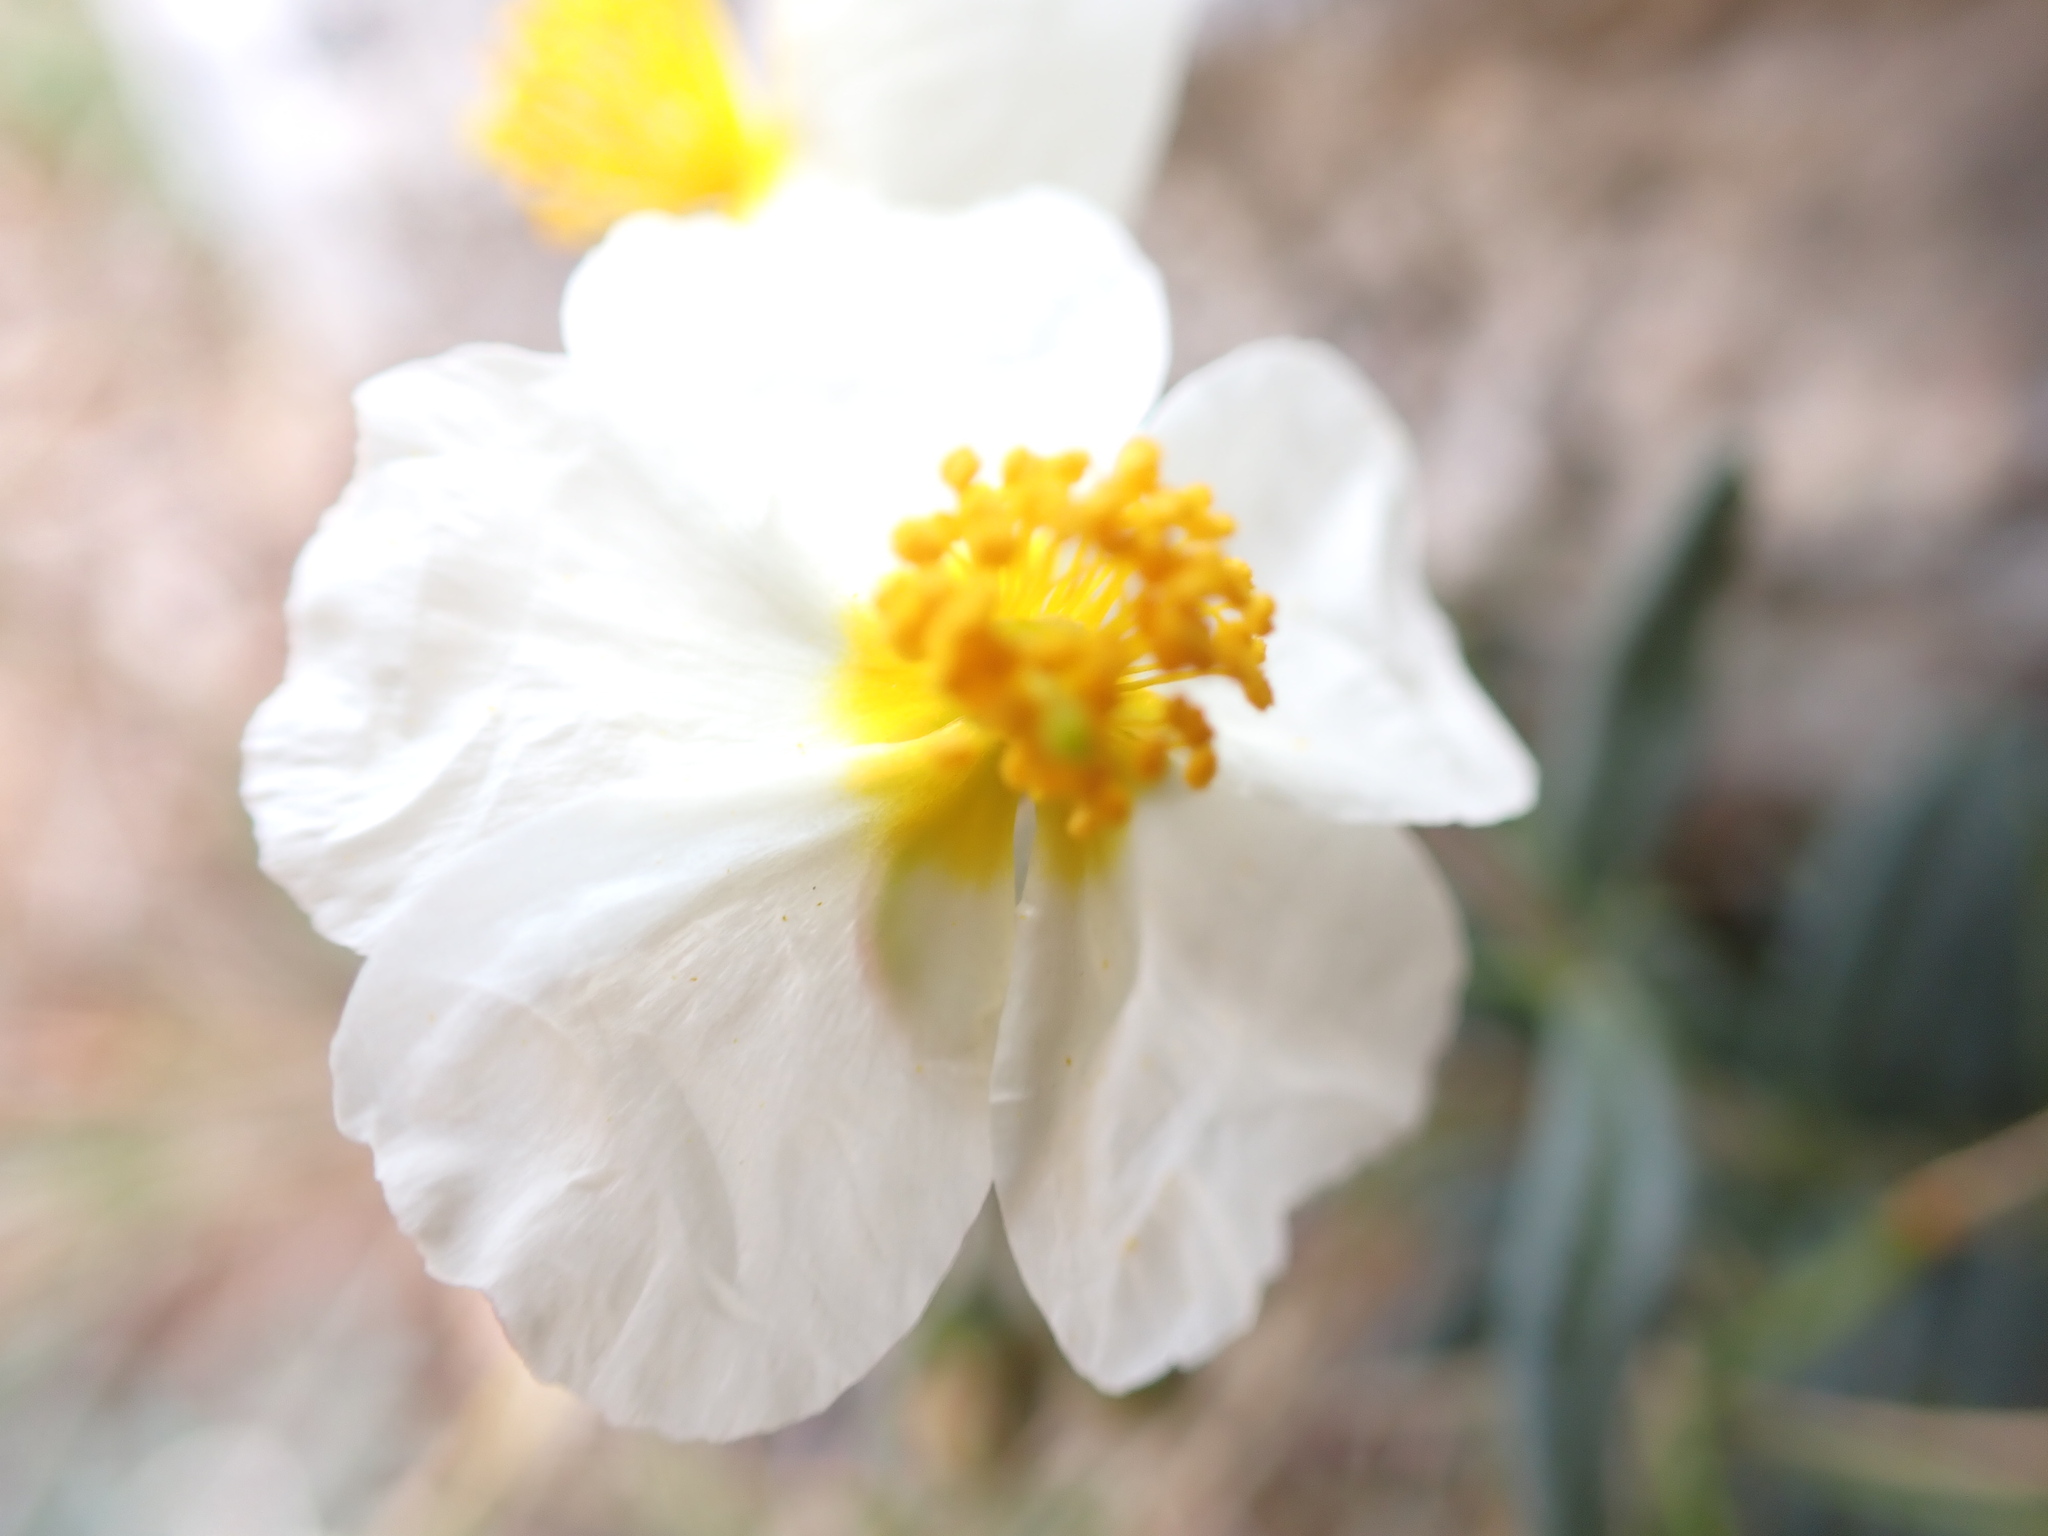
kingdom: Plantae
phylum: Tracheophyta
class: Magnoliopsida
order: Malvales
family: Cistaceae
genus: Helianthemum
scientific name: Helianthemum apenninum
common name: White rock-rose
